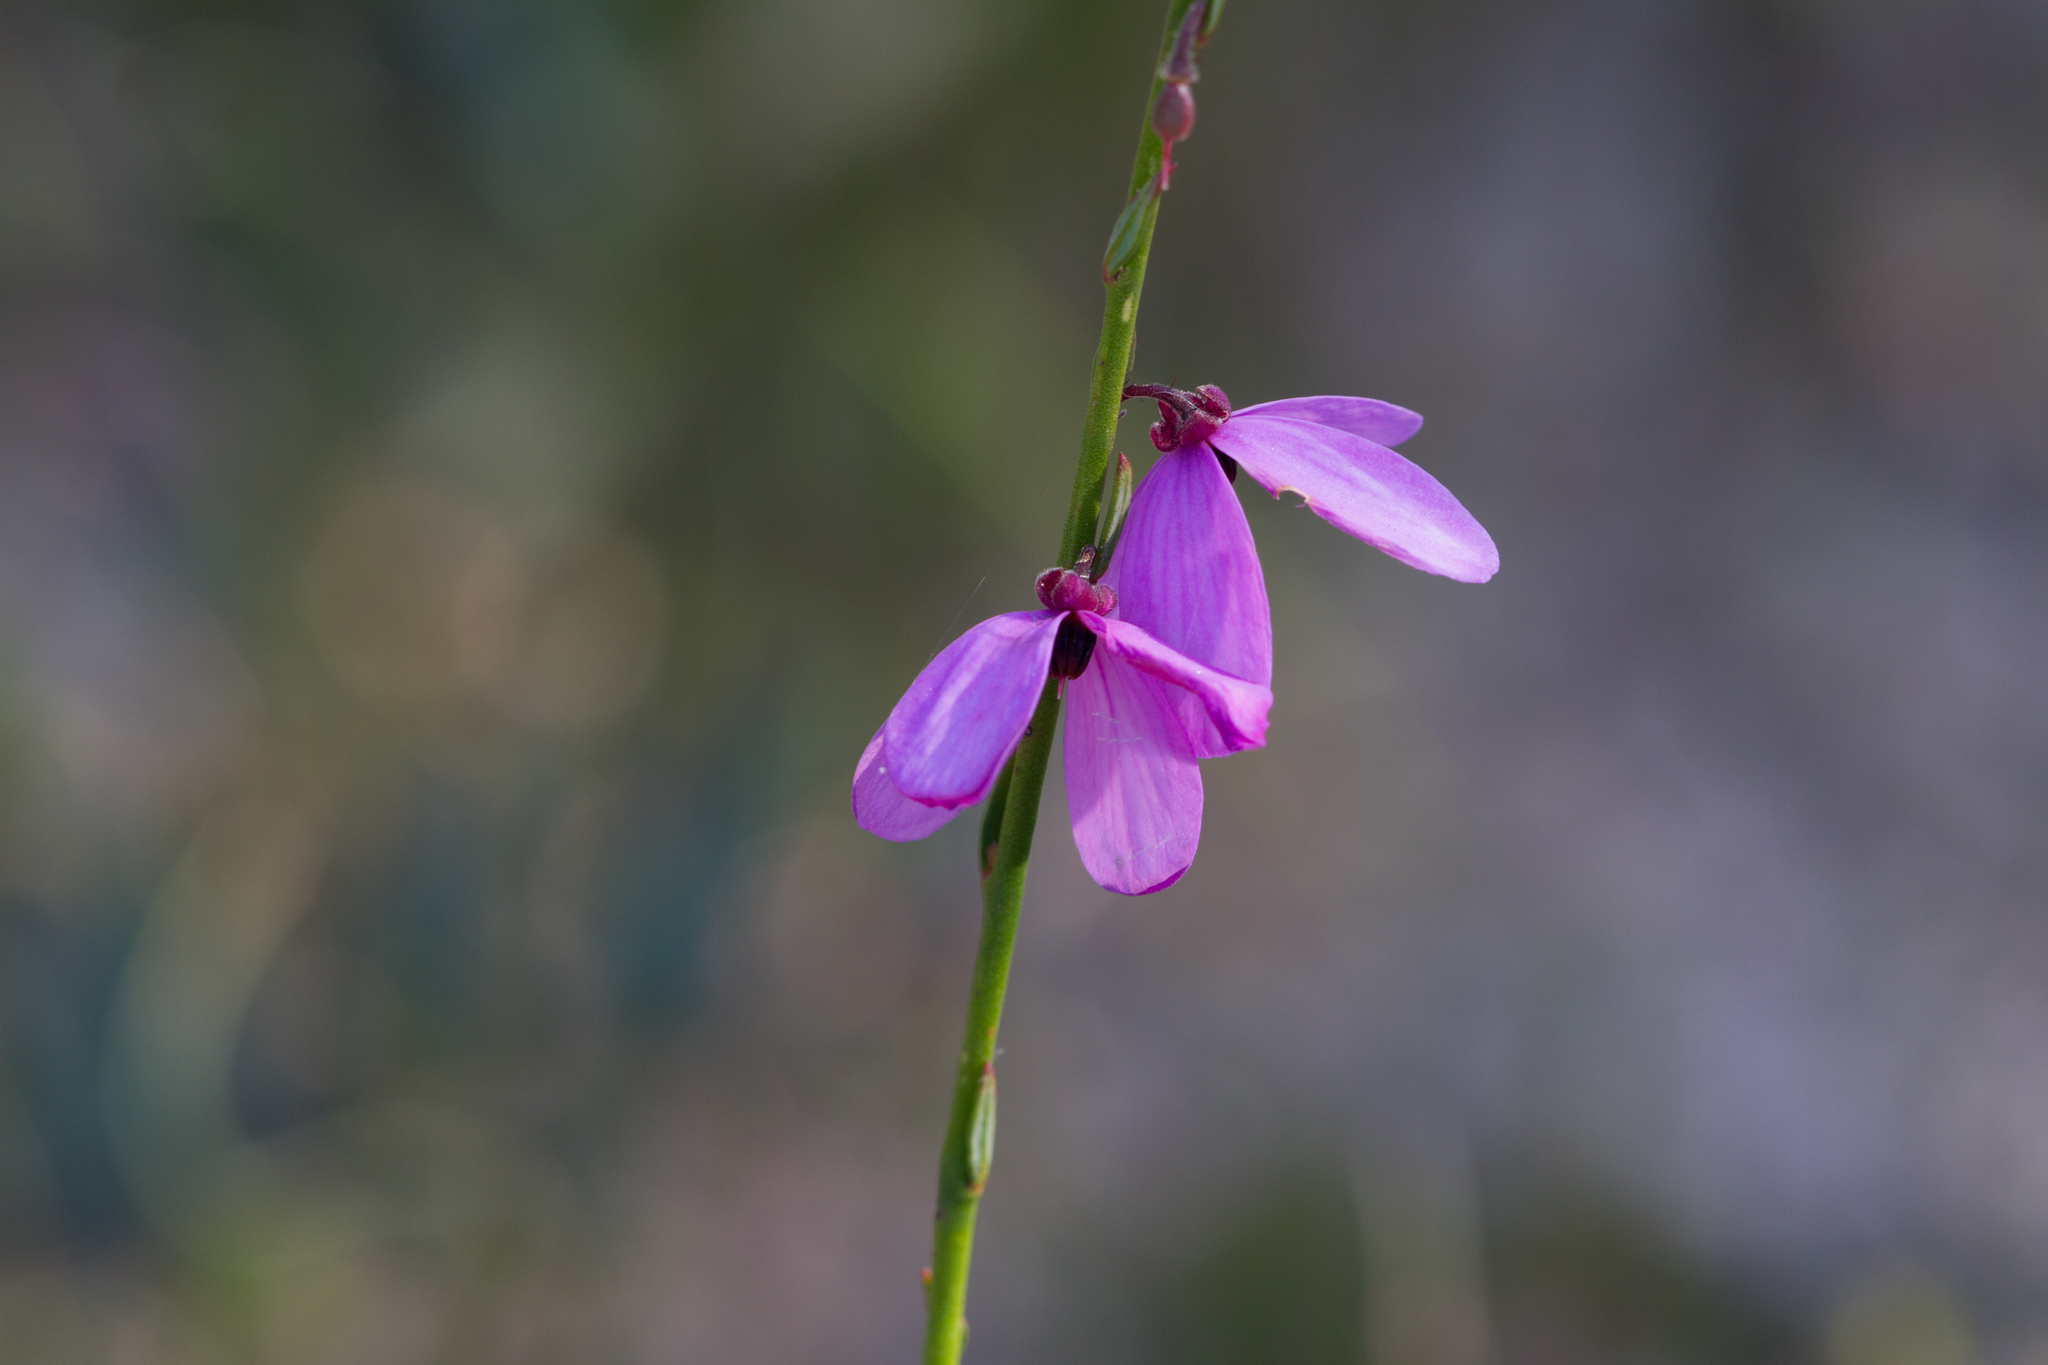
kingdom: Plantae
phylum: Tracheophyta
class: Magnoliopsida
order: Oxalidales
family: Elaeocarpaceae
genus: Tetratheca
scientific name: Tetratheca ciliata
